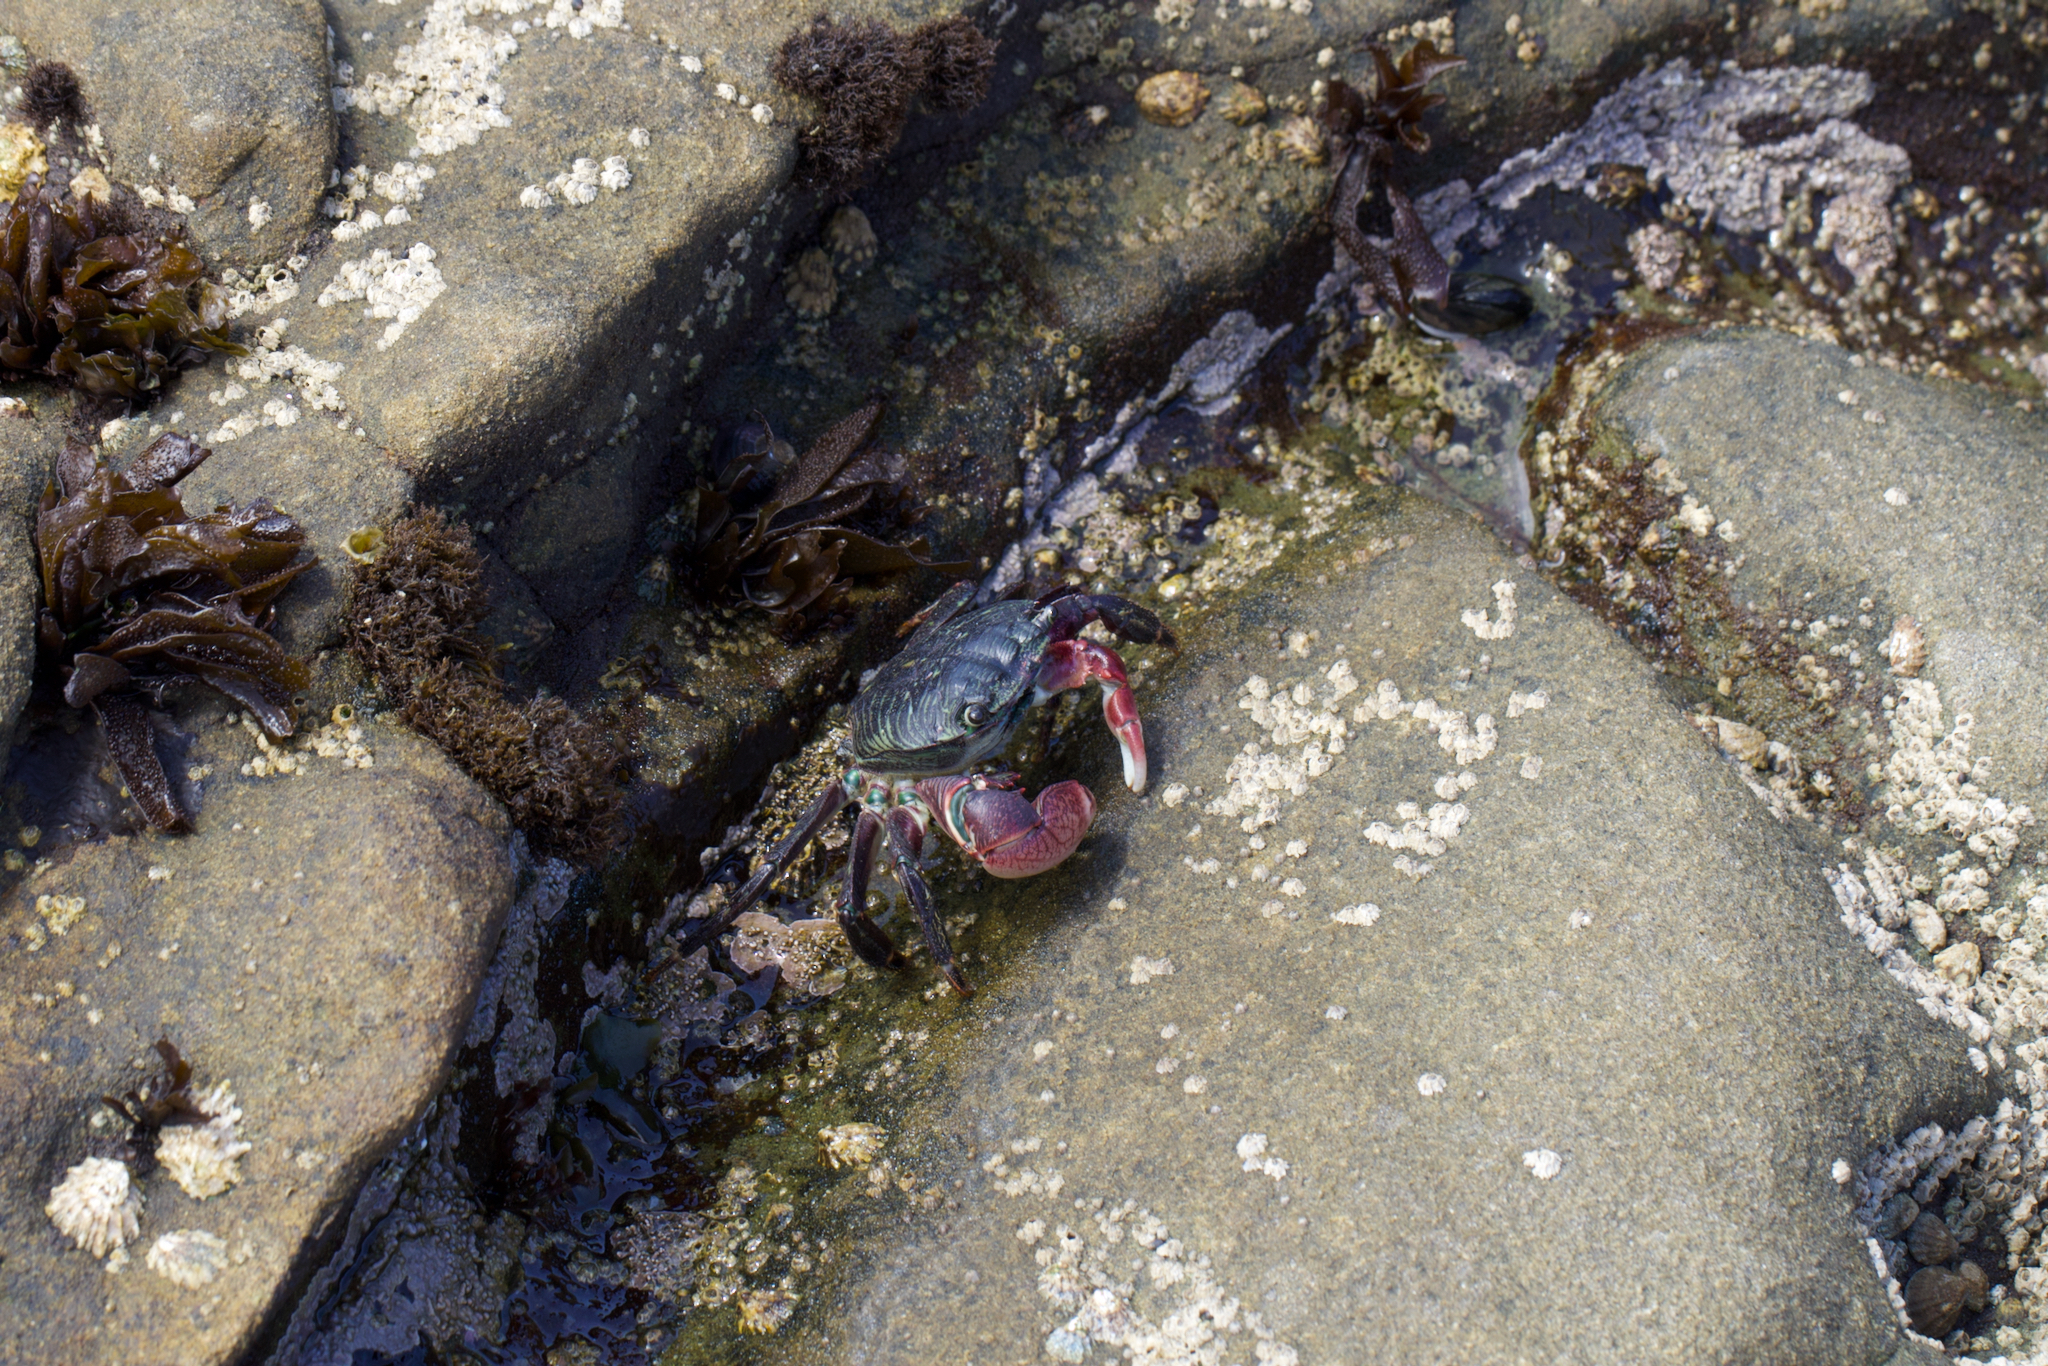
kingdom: Animalia
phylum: Arthropoda
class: Malacostraca
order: Decapoda
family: Grapsidae
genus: Pachygrapsus
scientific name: Pachygrapsus crassipes
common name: Striped shore crab
